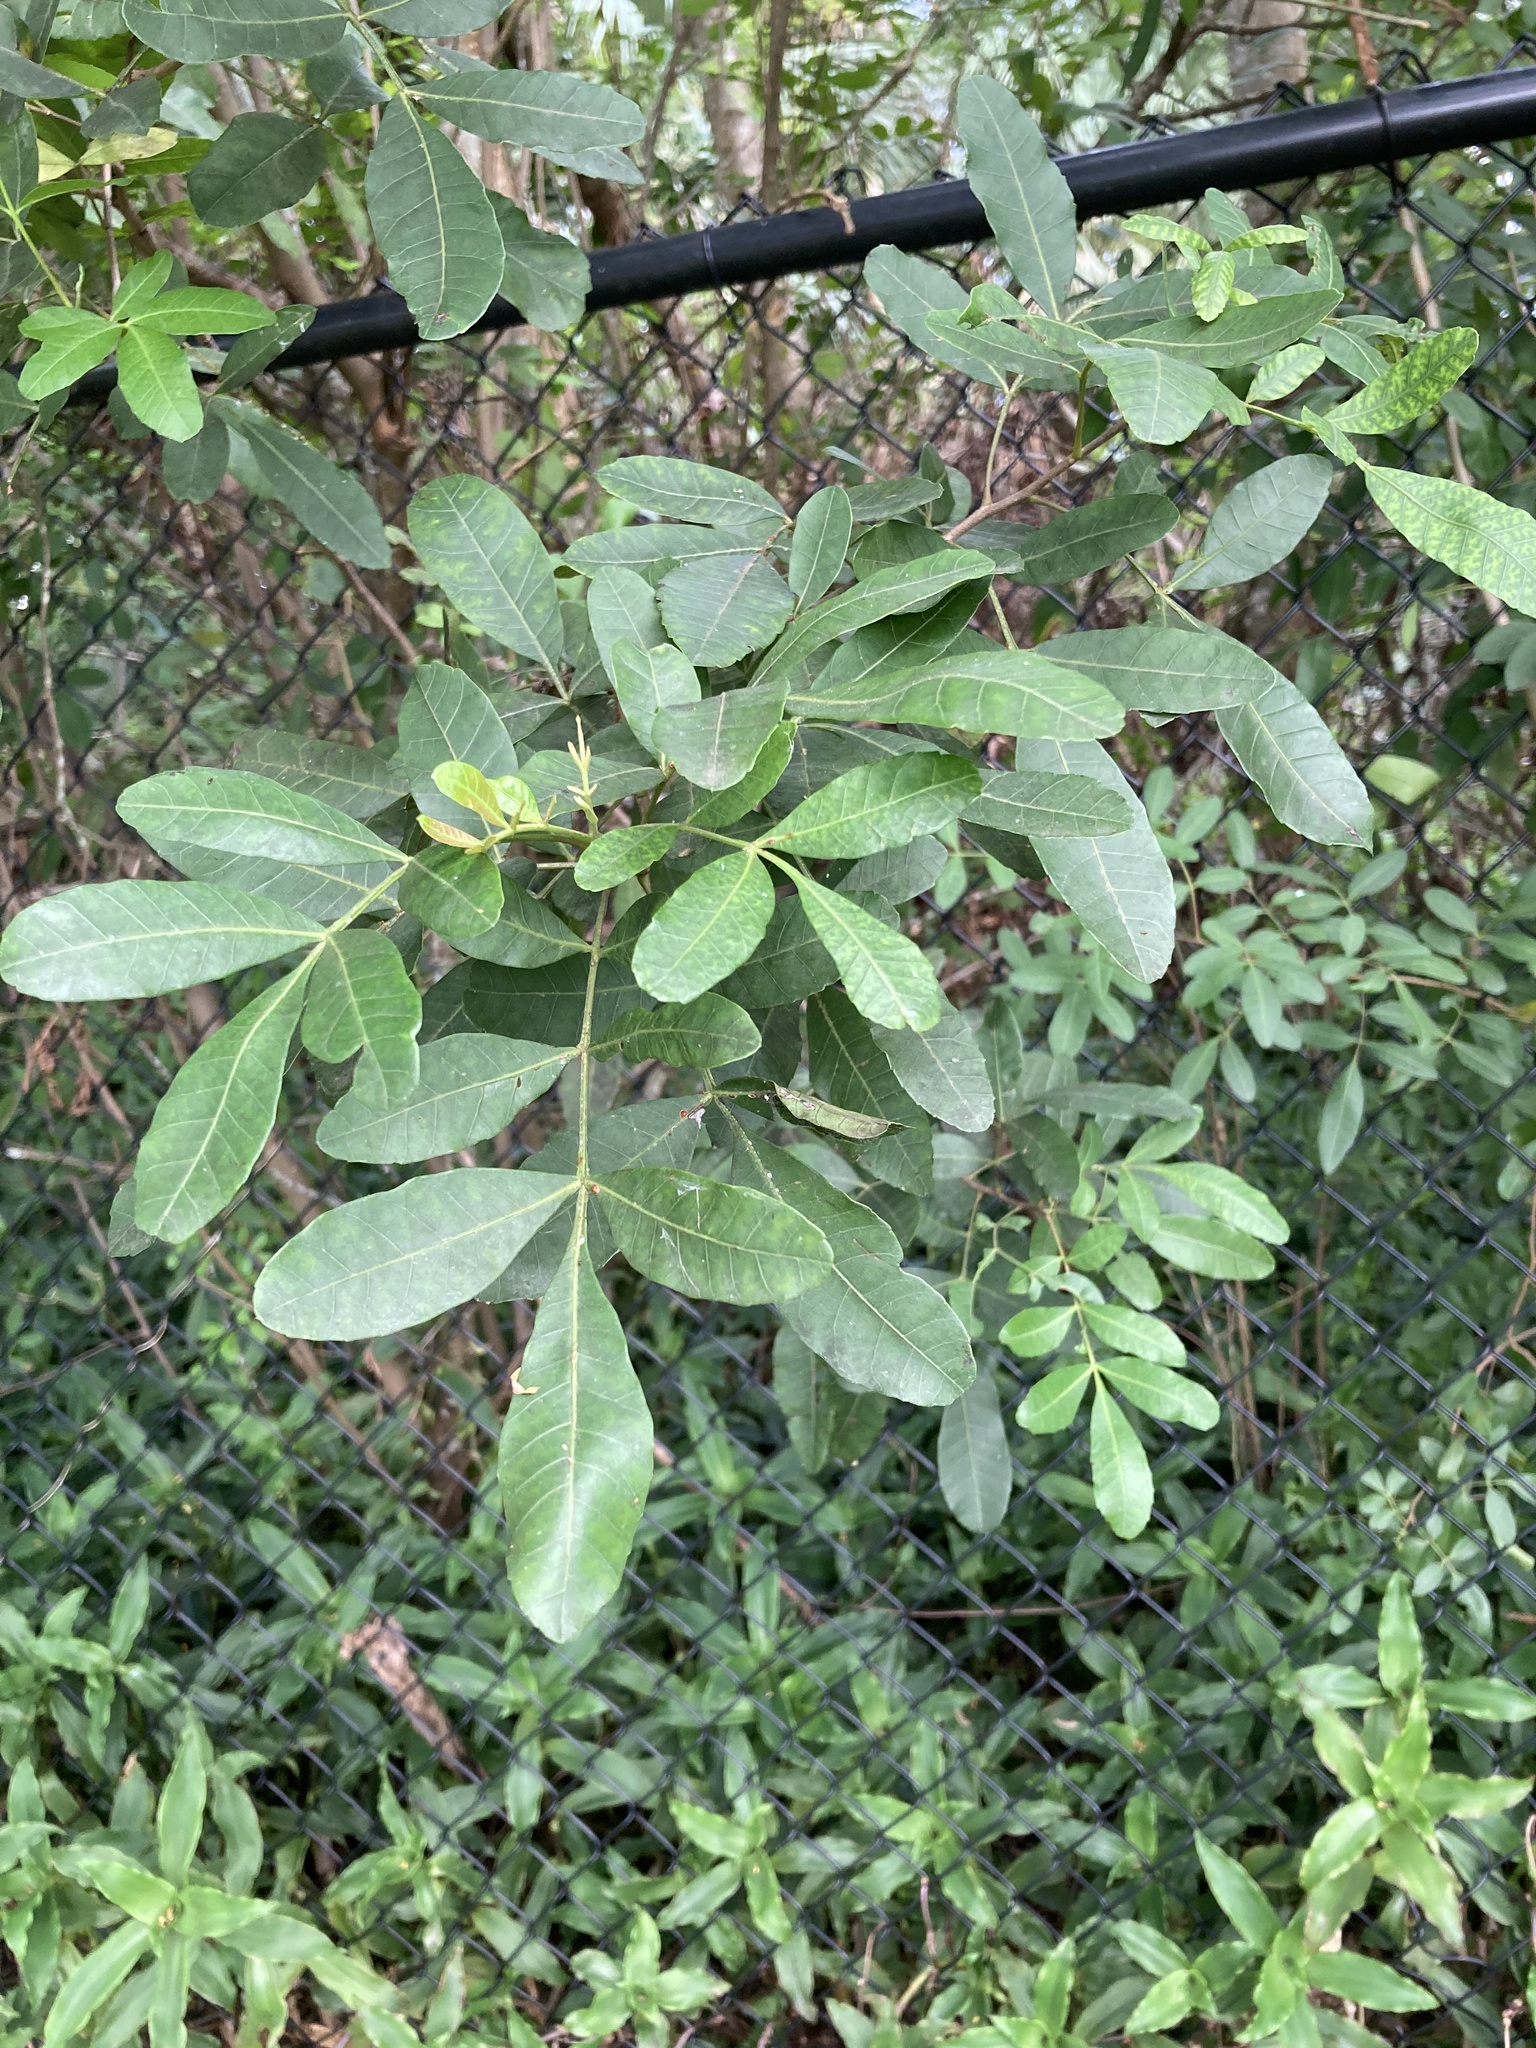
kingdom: Plantae
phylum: Tracheophyta
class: Magnoliopsida
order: Sapindales
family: Anacardiaceae
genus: Schinus
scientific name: Schinus terebinthifolia
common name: Brazilian peppertree
